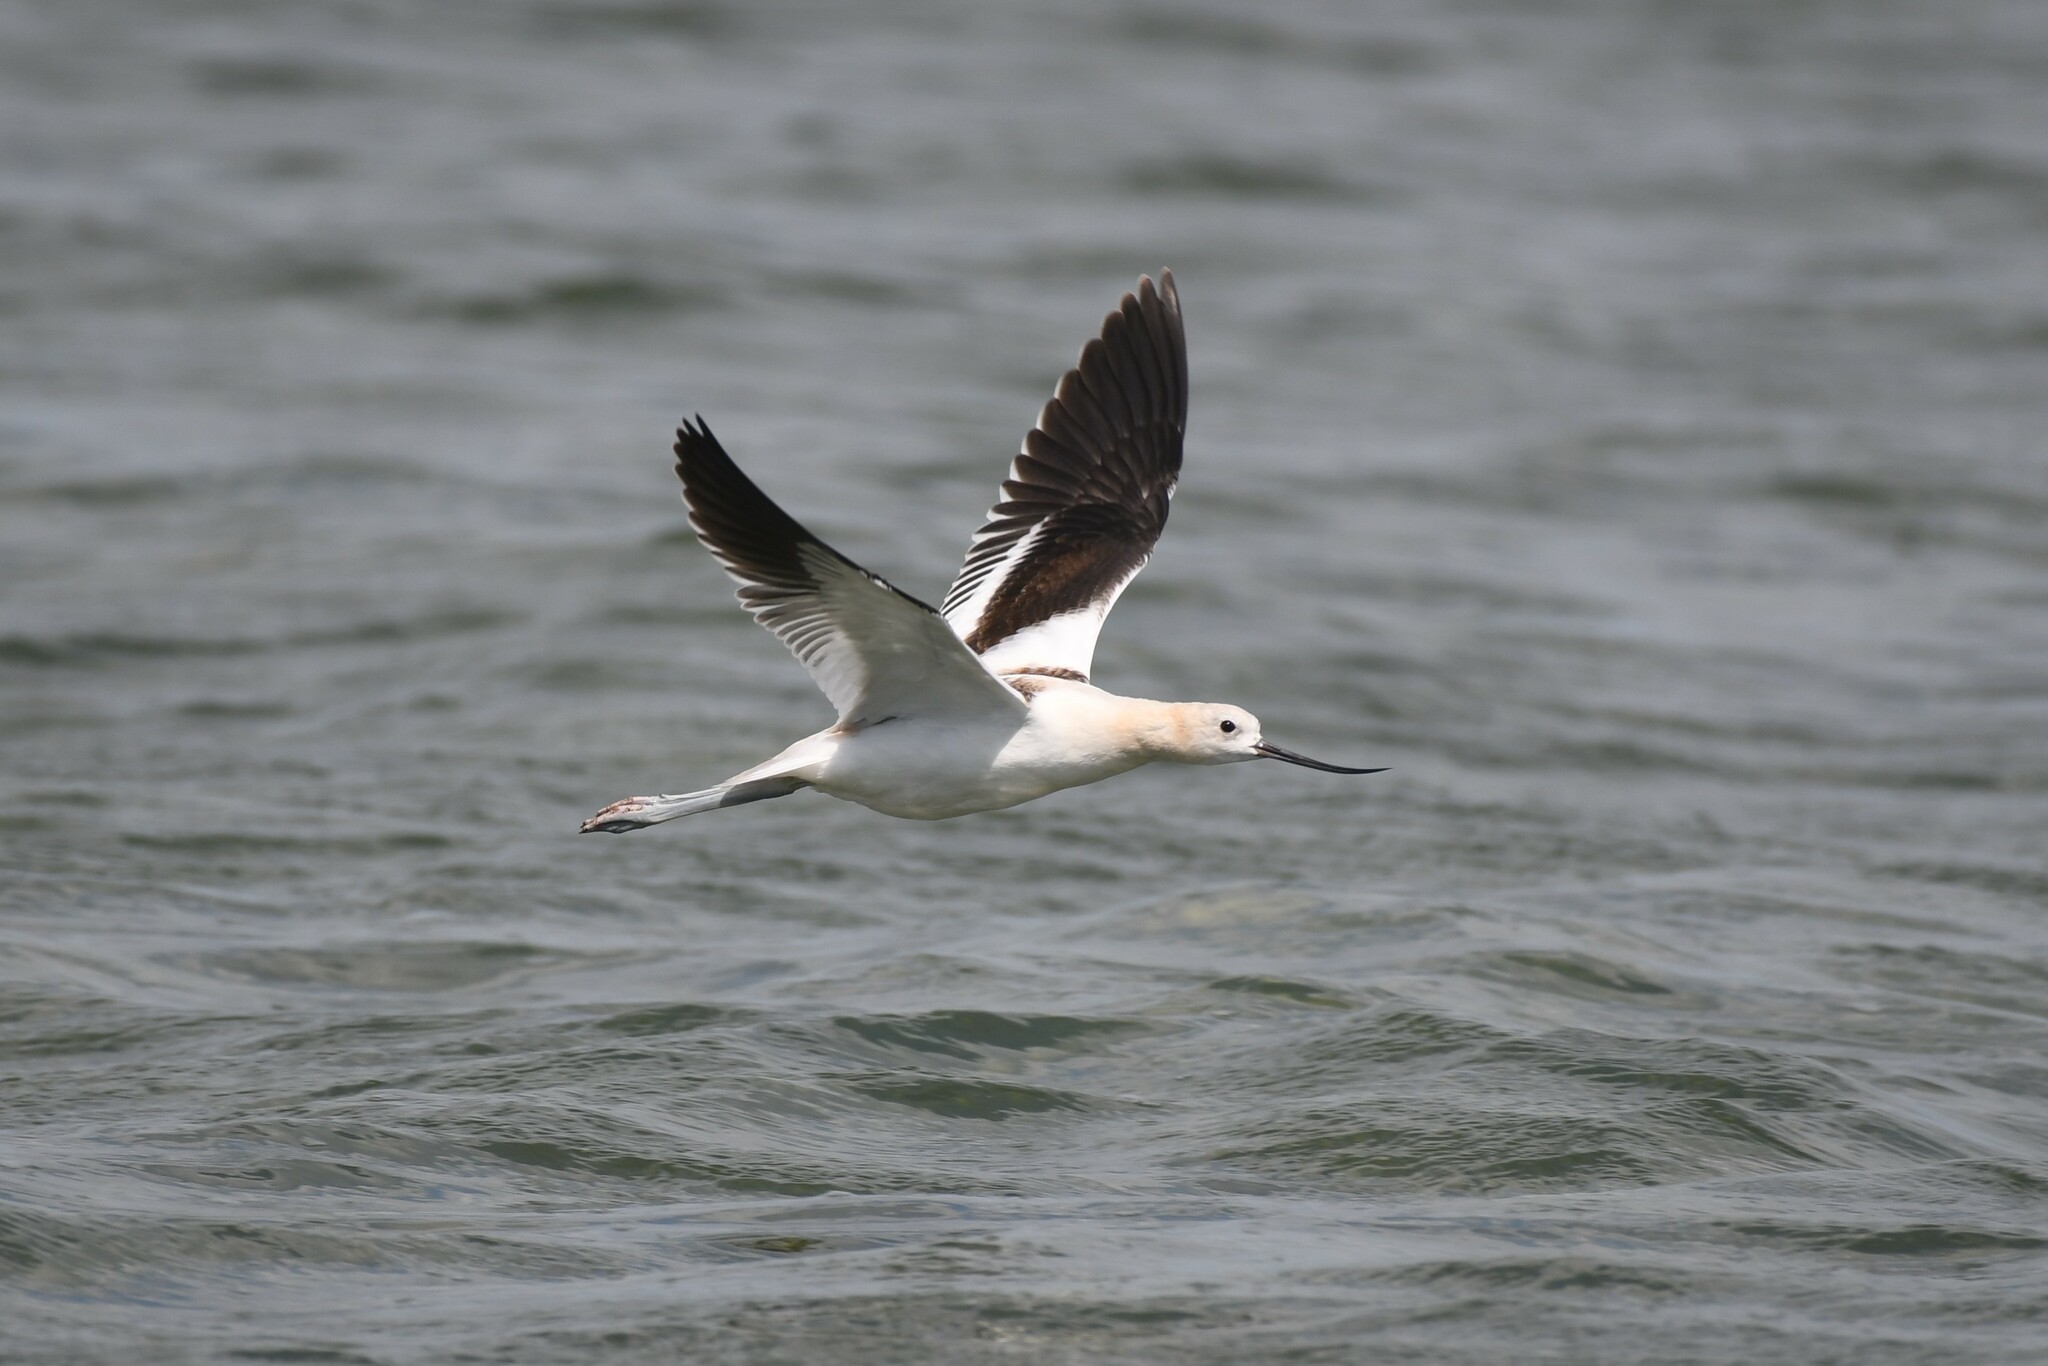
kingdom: Animalia
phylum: Chordata
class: Aves
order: Charadriiformes
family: Recurvirostridae
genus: Recurvirostra
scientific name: Recurvirostra americana
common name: American avocet
